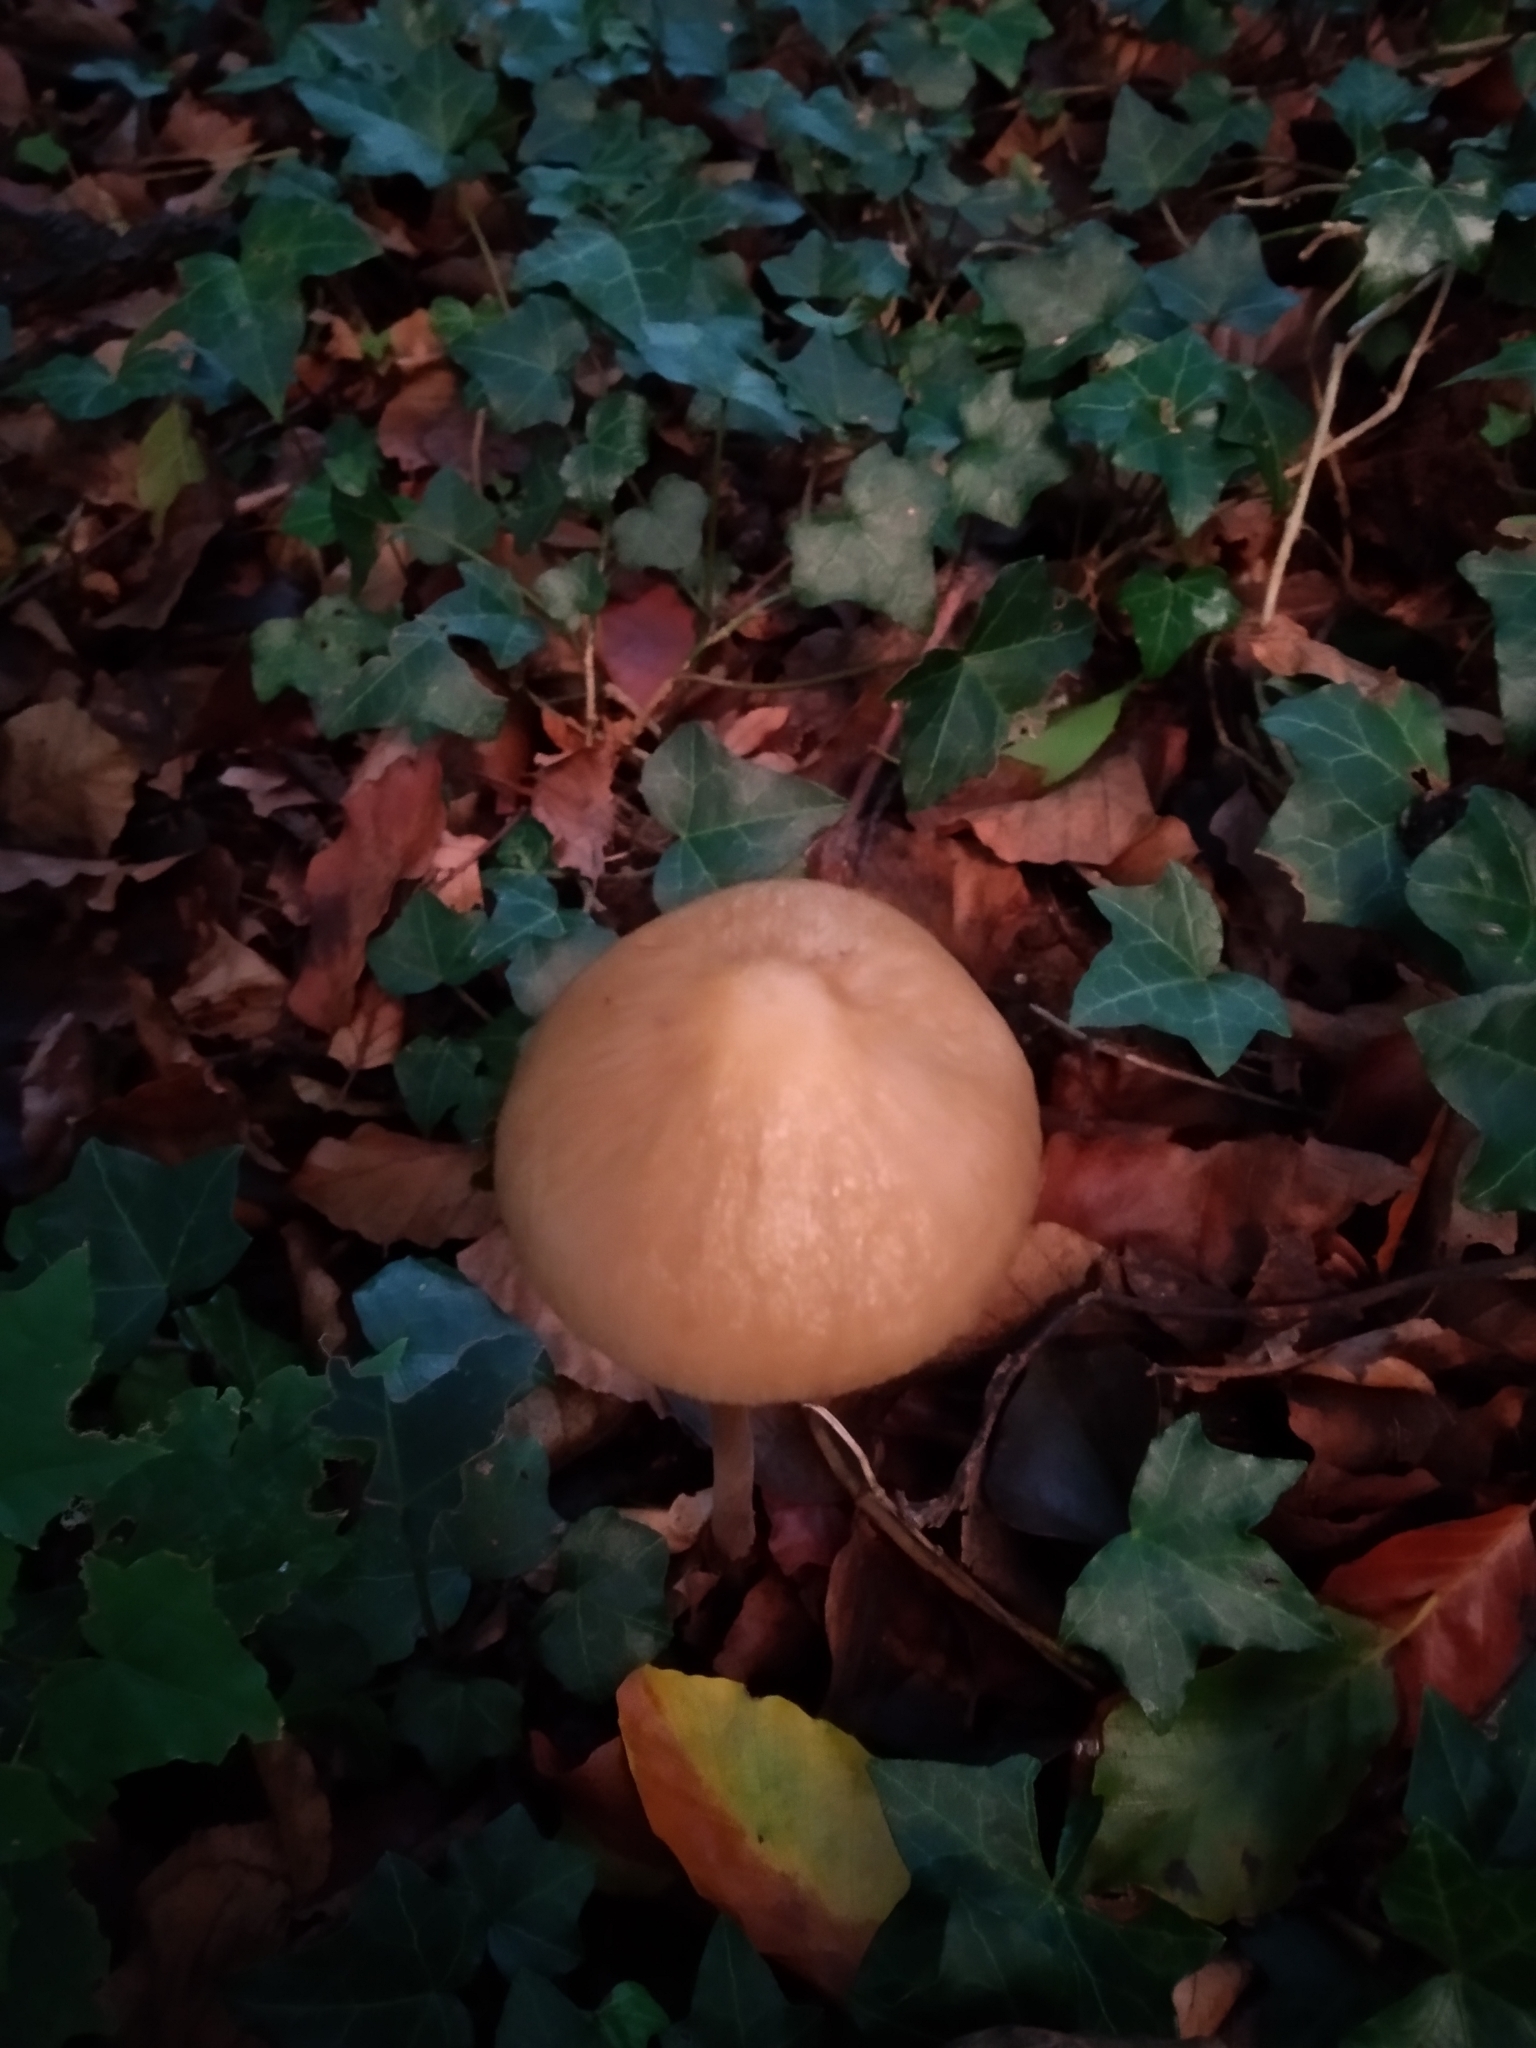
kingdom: Fungi
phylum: Basidiomycota
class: Agaricomycetes
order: Agaricales
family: Physalacriaceae
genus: Hymenopellis
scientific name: Hymenopellis radicata
